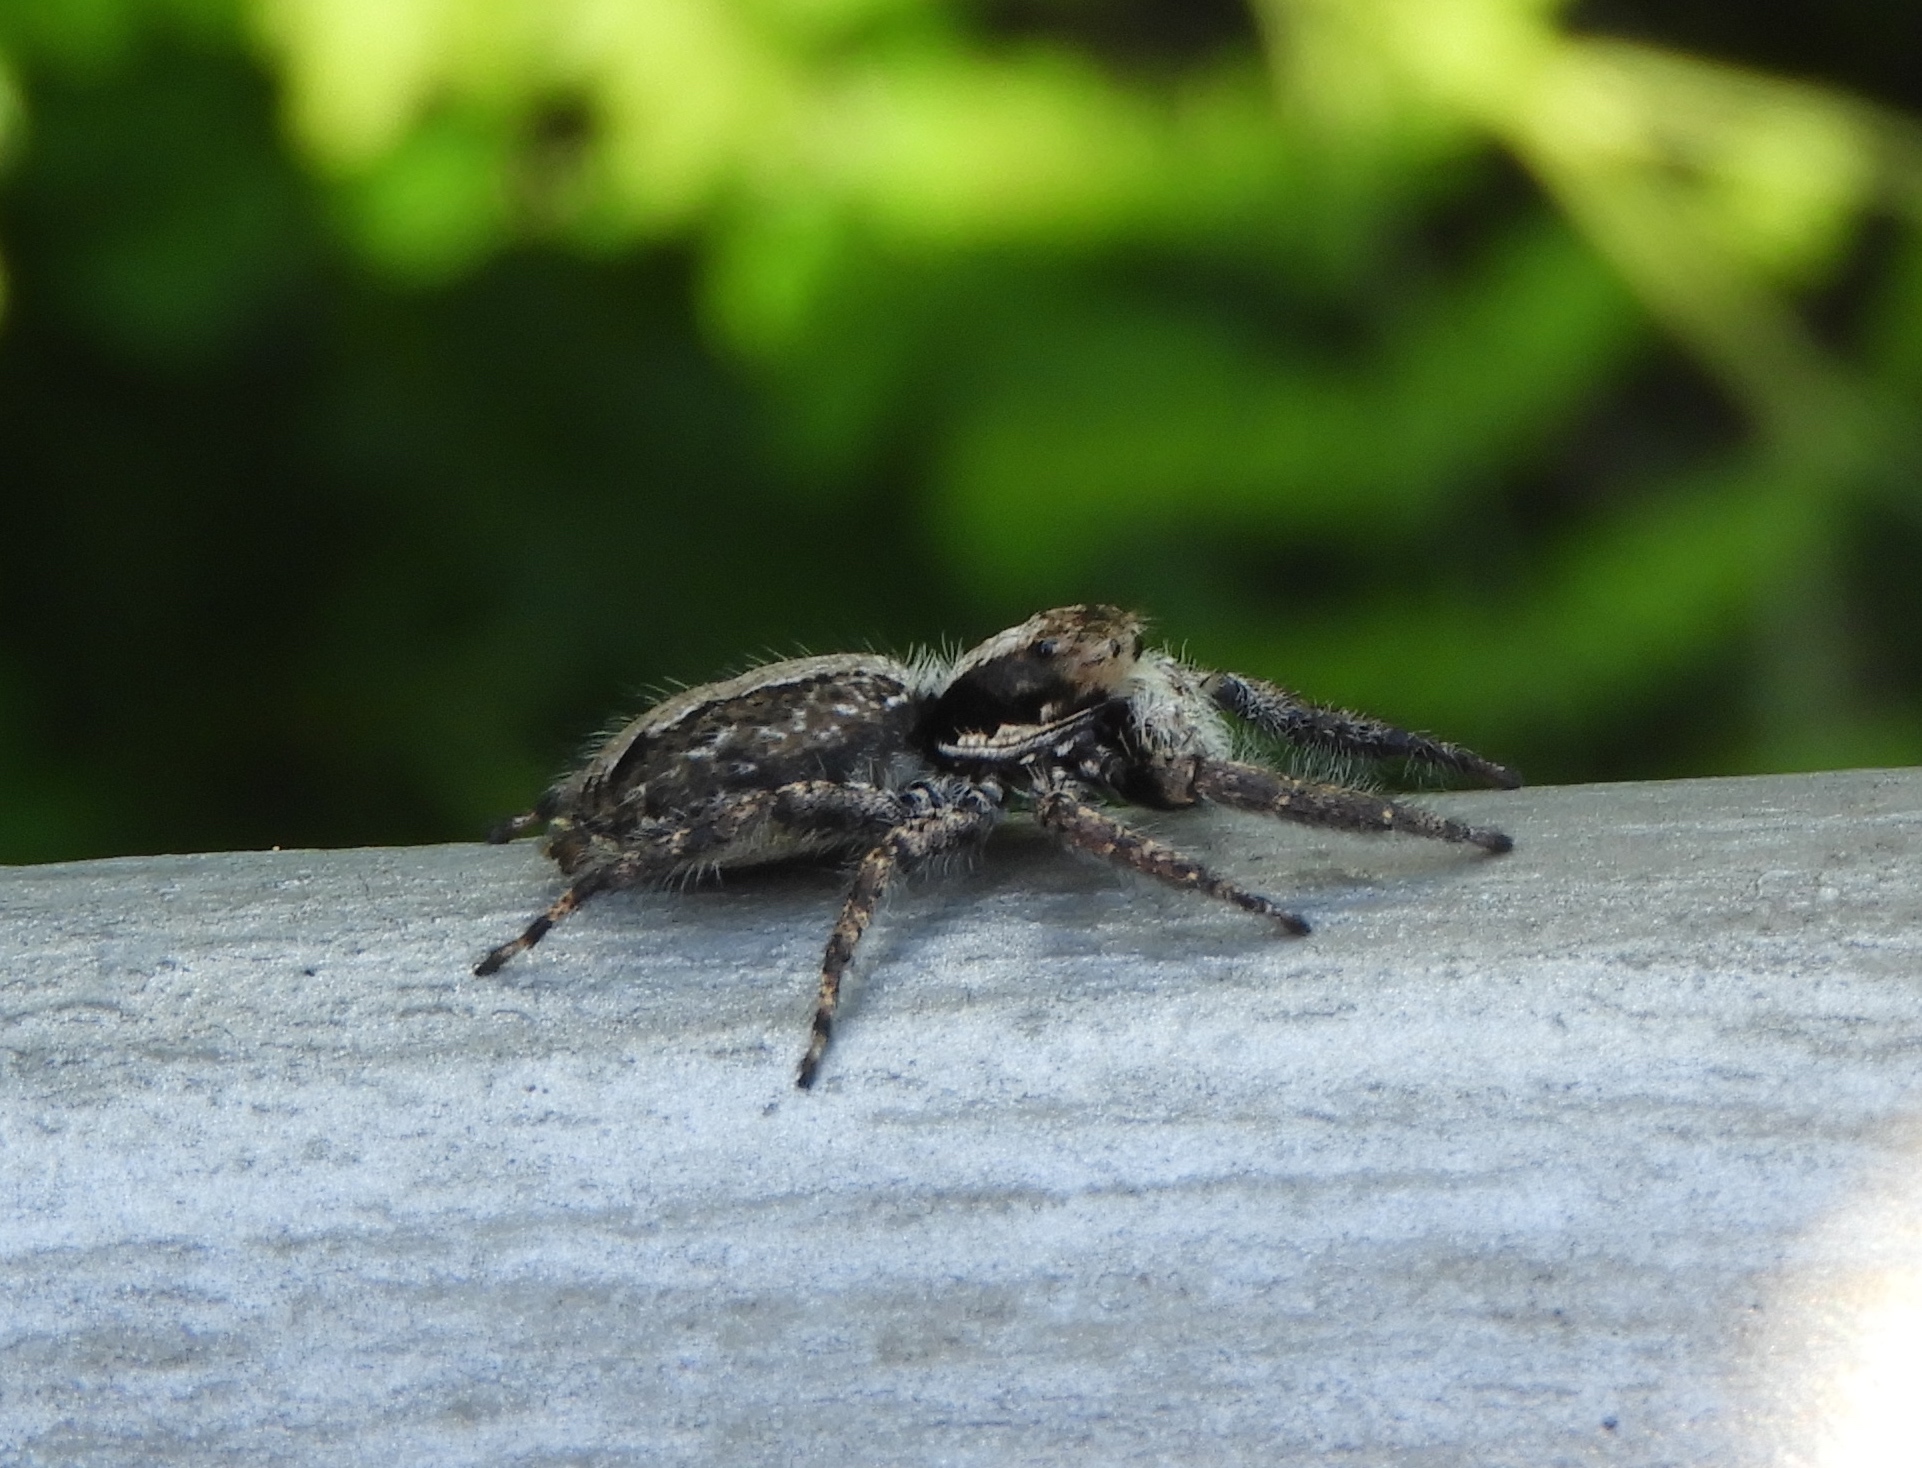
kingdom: Animalia
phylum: Arthropoda
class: Arachnida
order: Araneae
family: Salticidae
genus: Balmaceda
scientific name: Balmaceda
